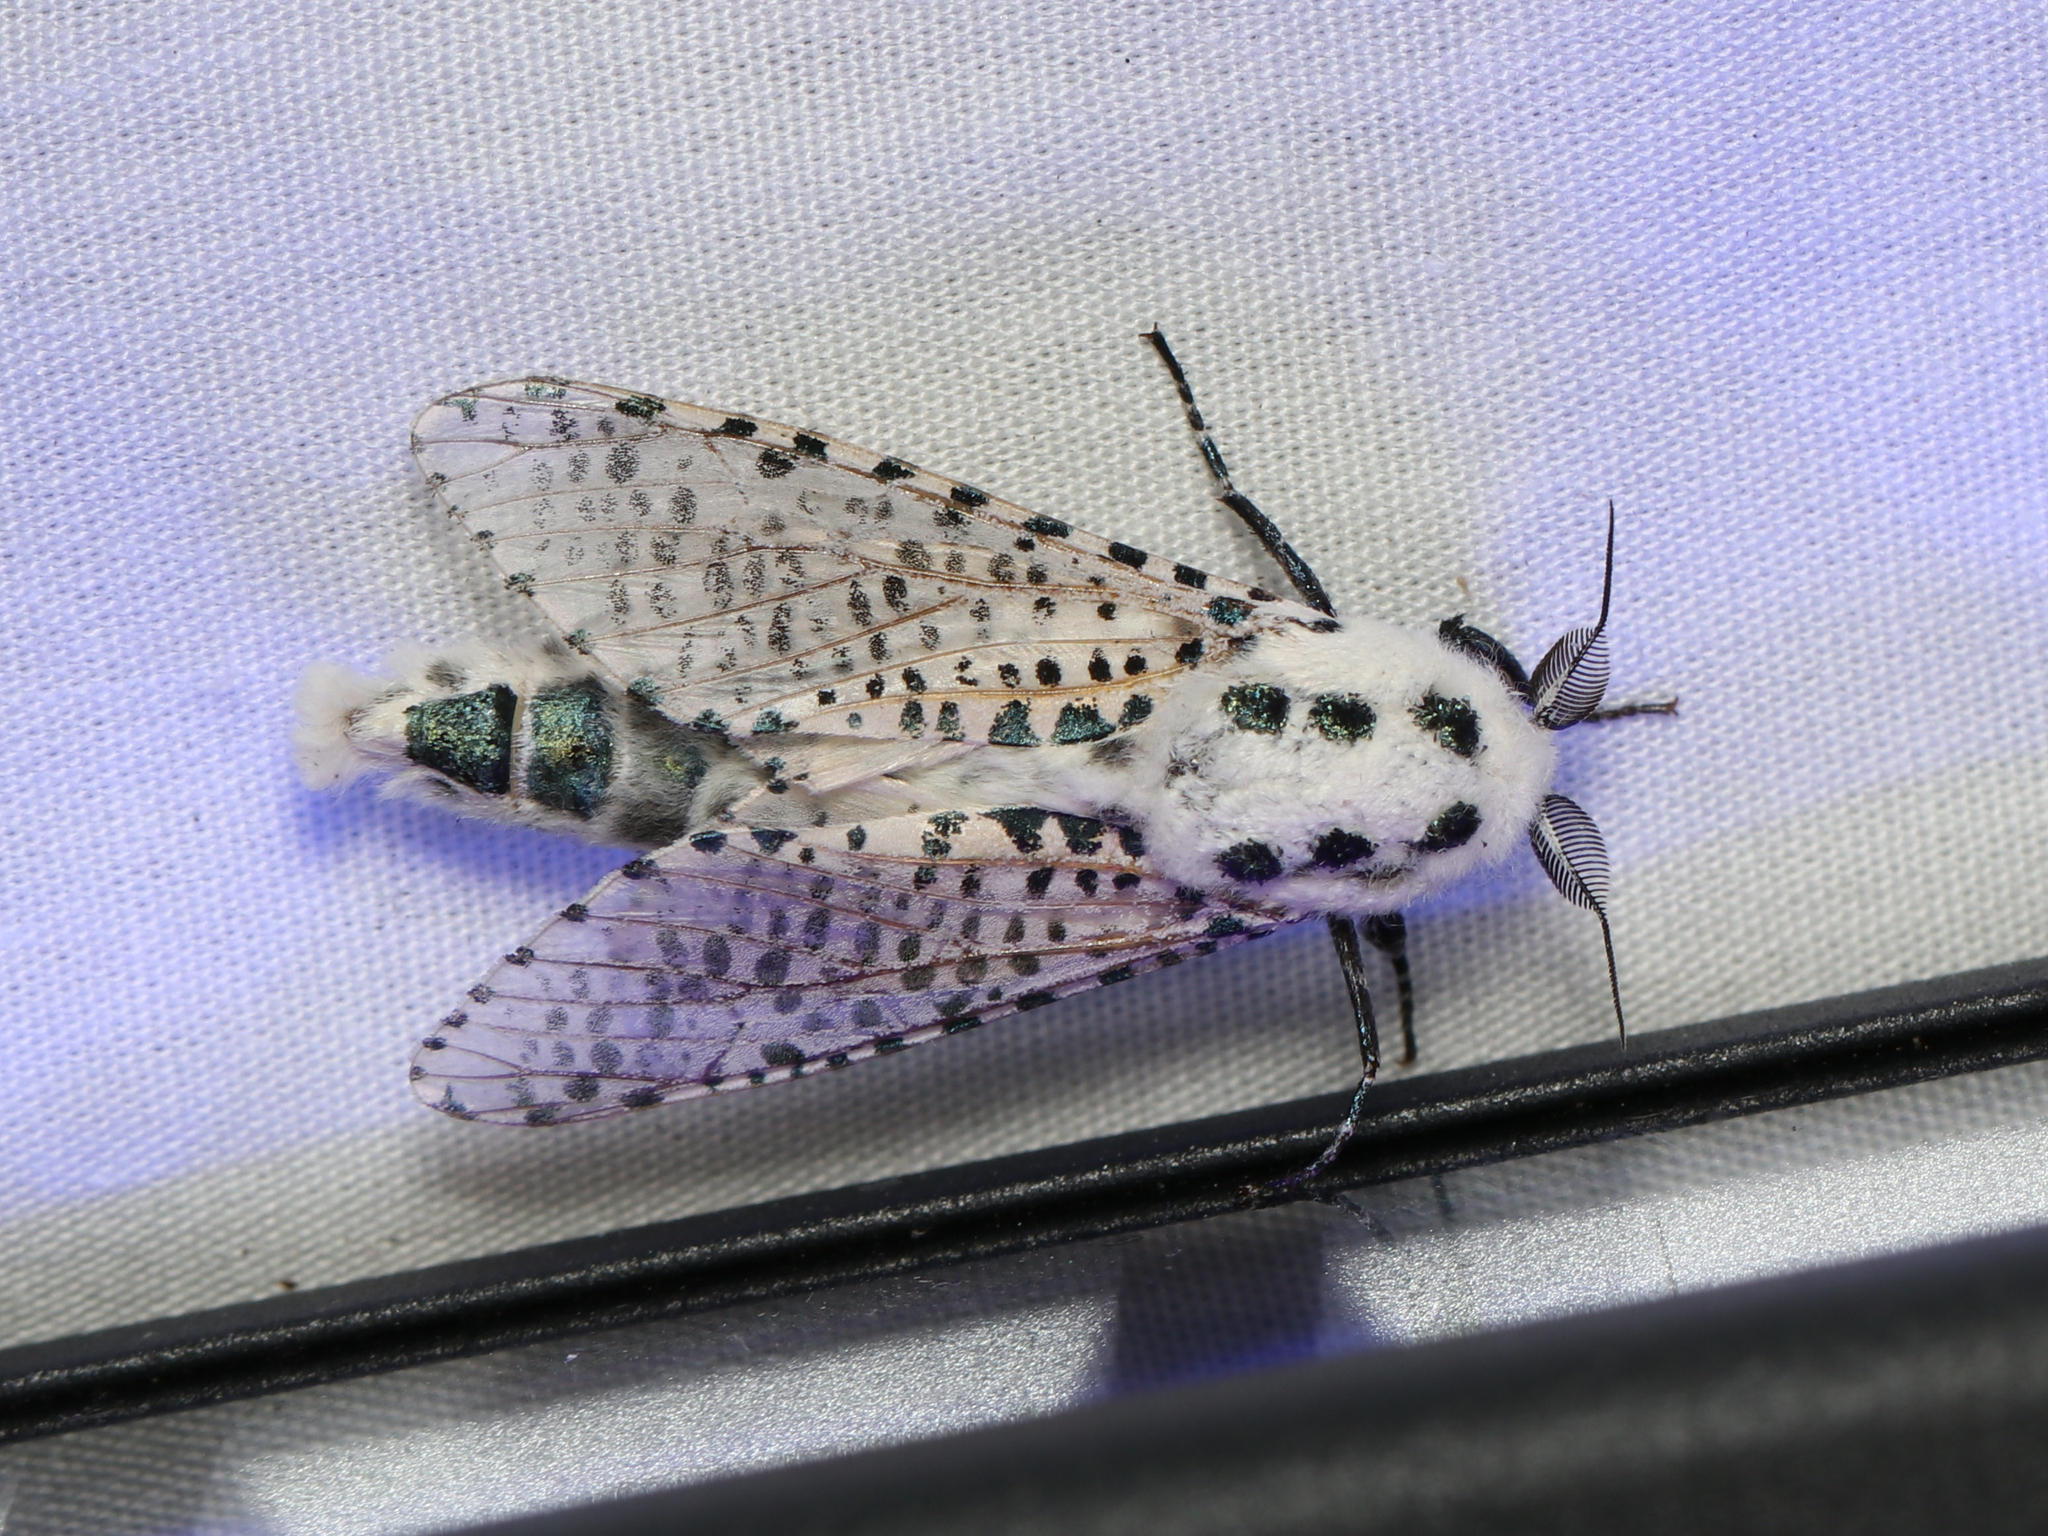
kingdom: Animalia
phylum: Arthropoda
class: Insecta
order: Lepidoptera
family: Cossidae
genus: Zeuzera
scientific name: Zeuzera pyrina
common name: Leopard moth
